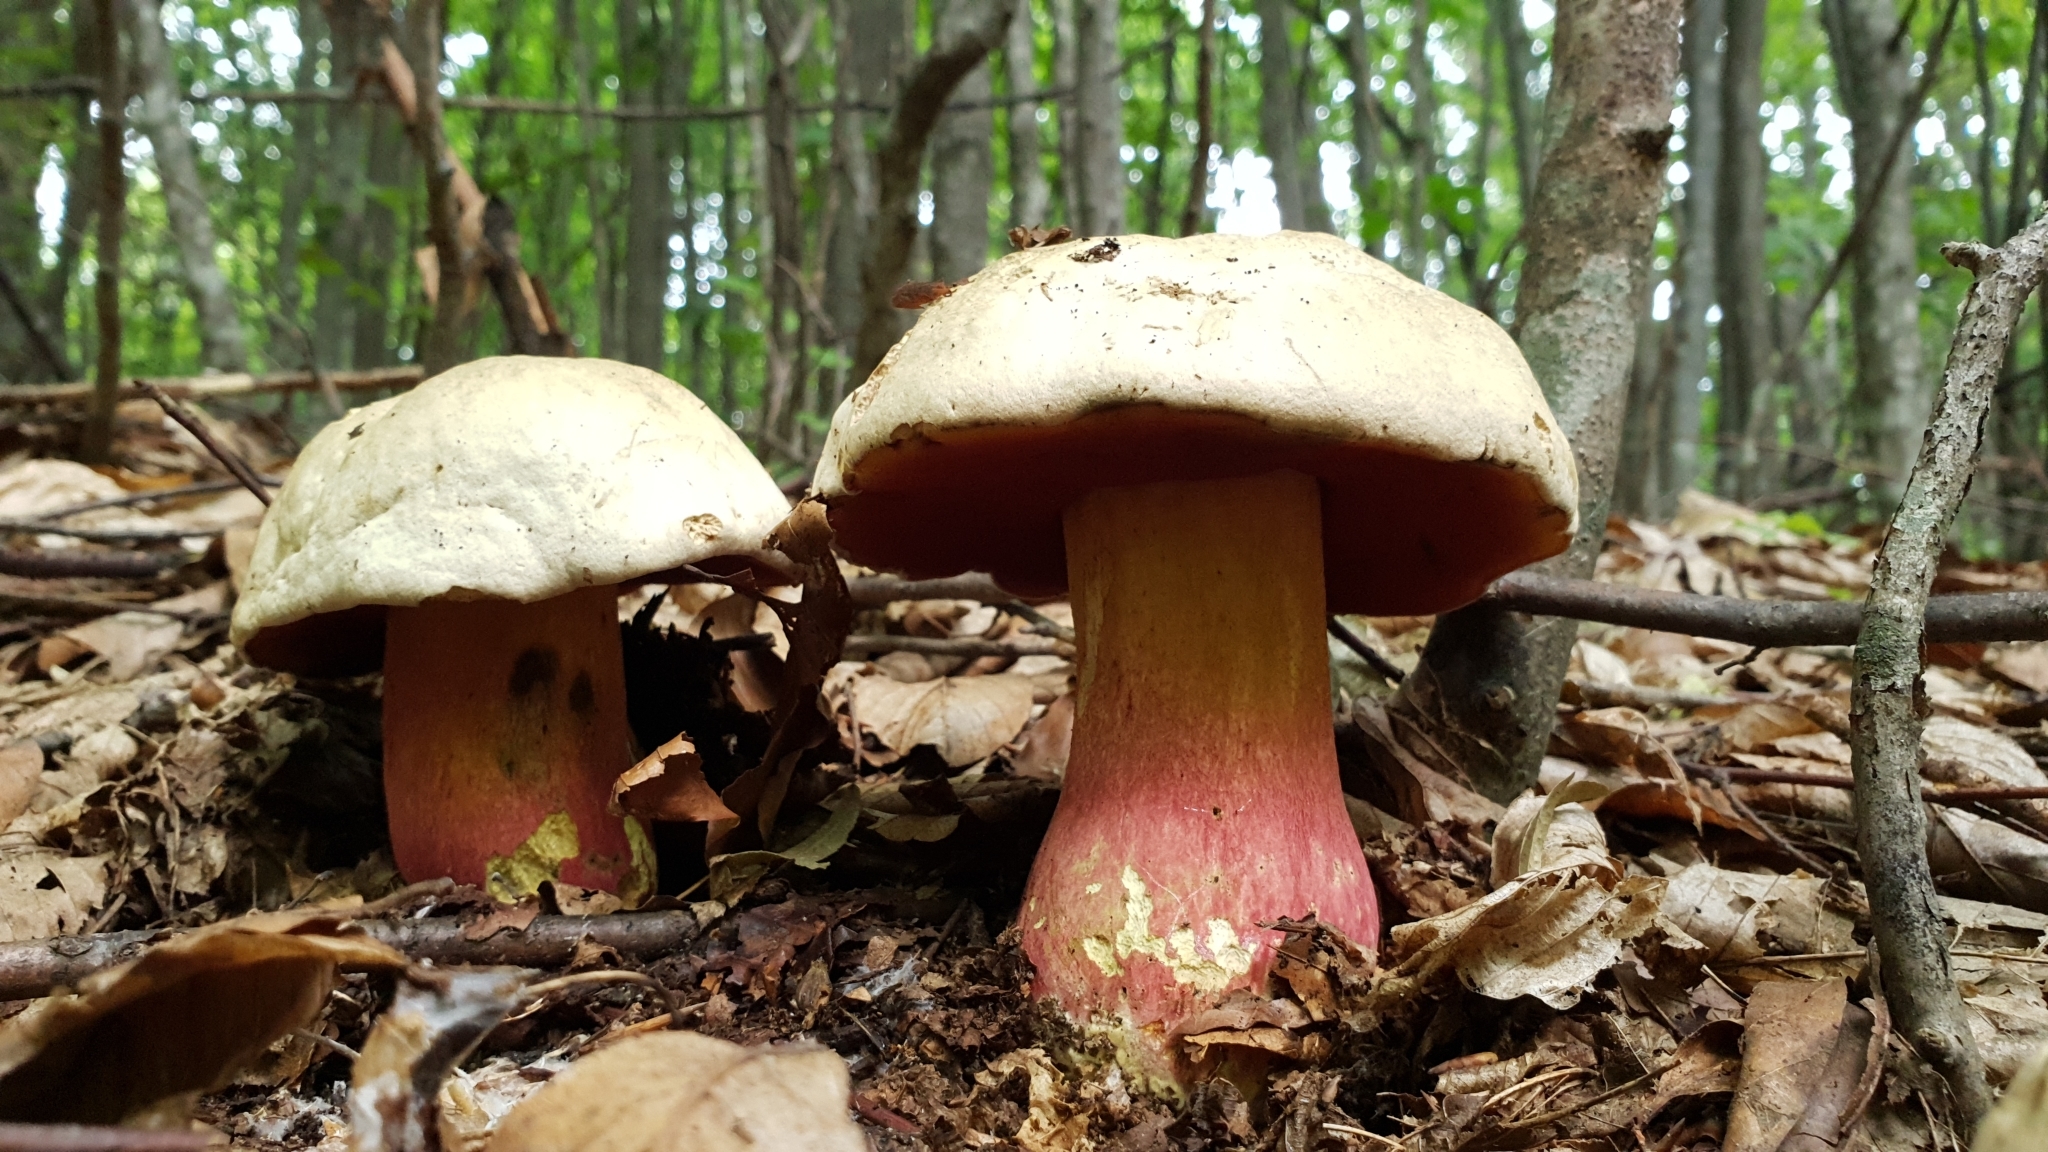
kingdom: Fungi
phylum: Basidiomycota
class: Agaricomycetes
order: Boletales
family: Boletaceae
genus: Rubroboletus
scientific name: Rubroboletus satanas
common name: Devil's bolete
